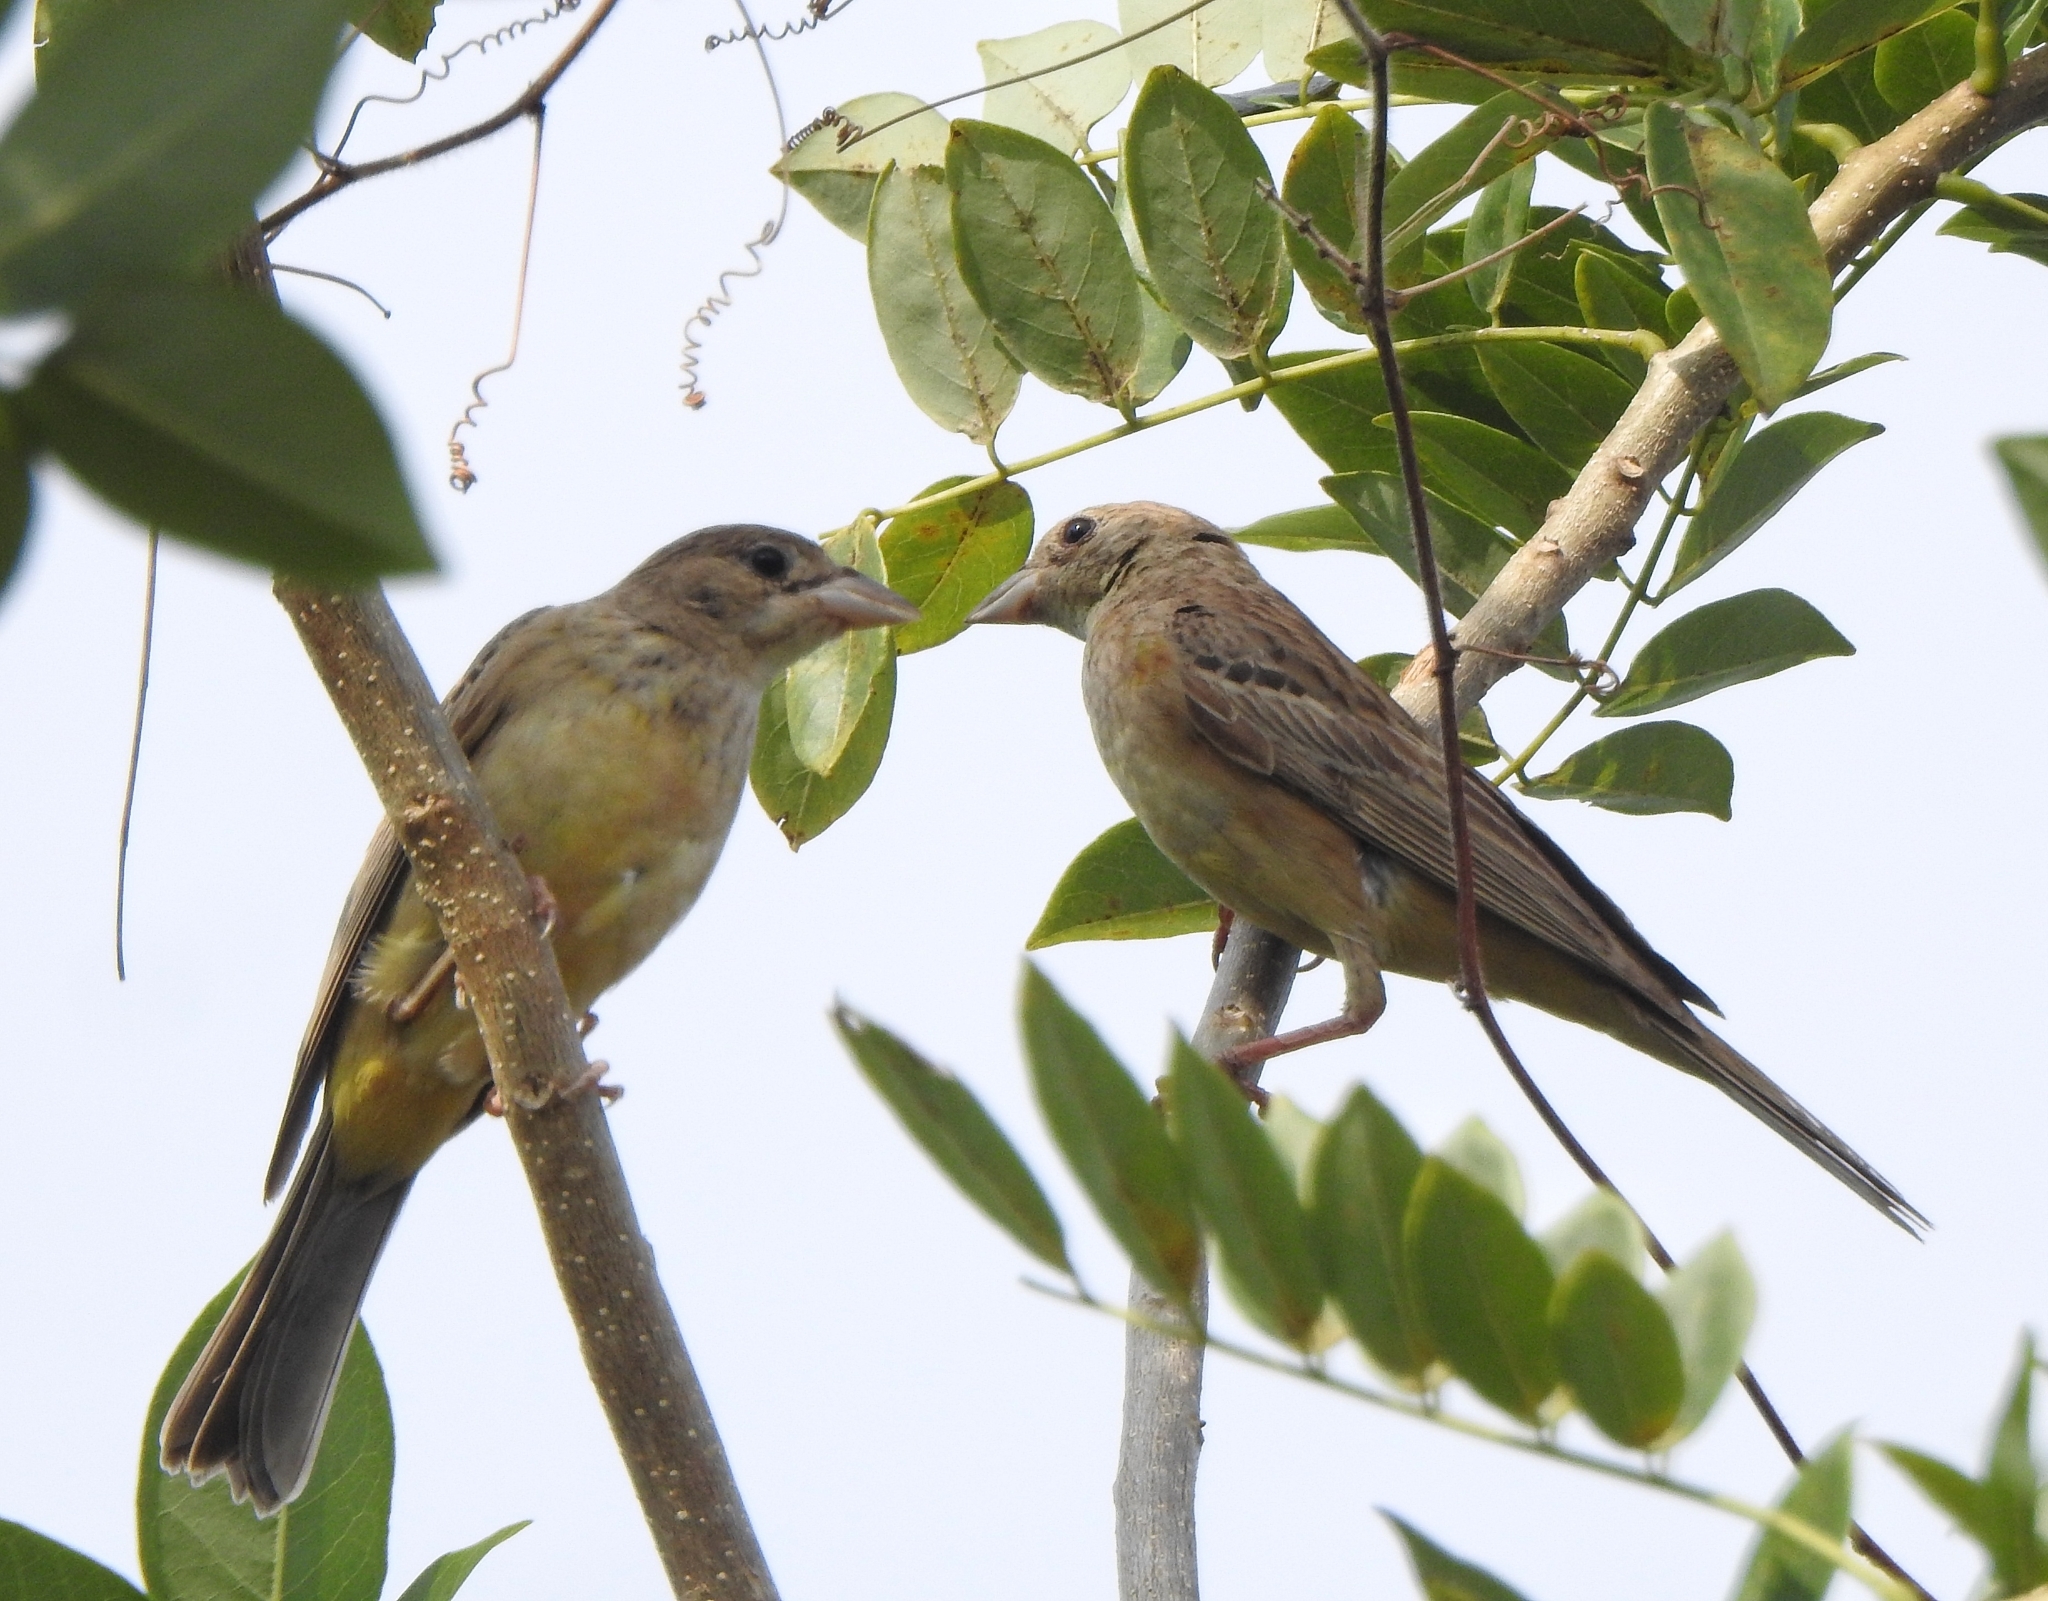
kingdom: Animalia
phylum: Chordata
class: Aves
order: Passeriformes
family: Emberizidae
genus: Emberiza
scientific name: Emberiza melanocephala
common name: Black-headed bunting
